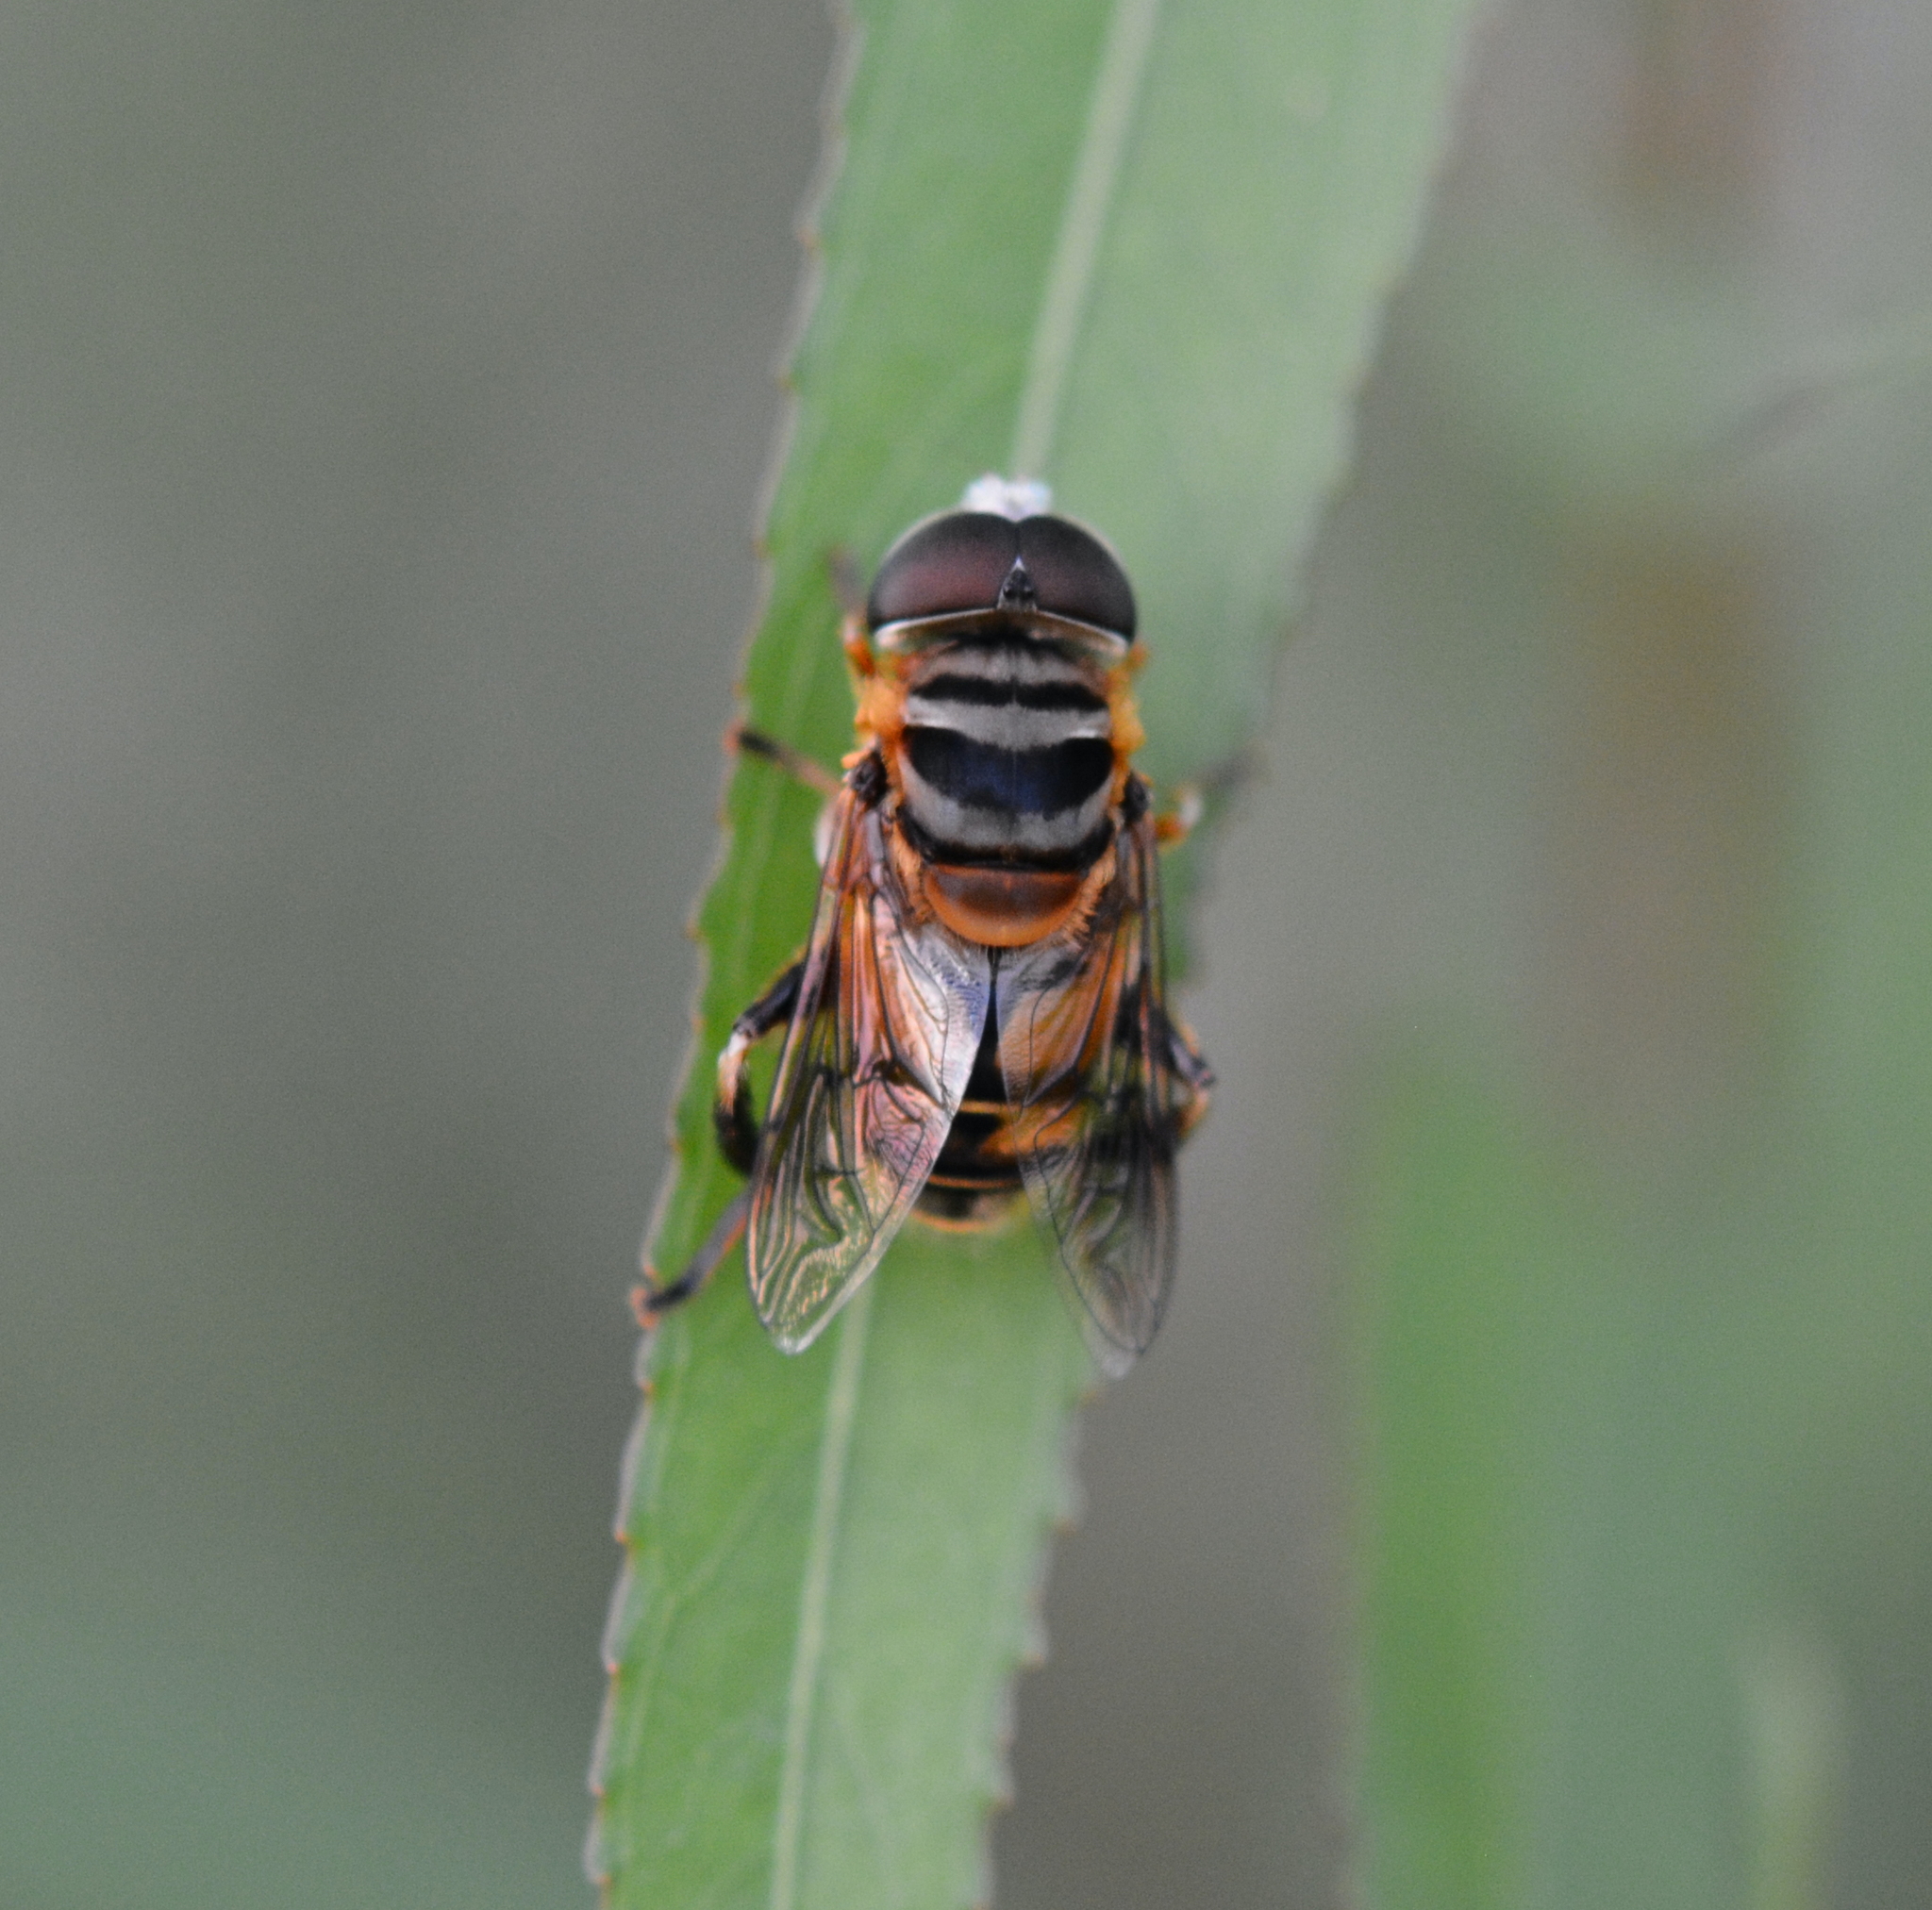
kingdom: Animalia
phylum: Arthropoda
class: Insecta
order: Diptera
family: Syrphidae
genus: Palpada
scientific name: Palpada vinetorum
